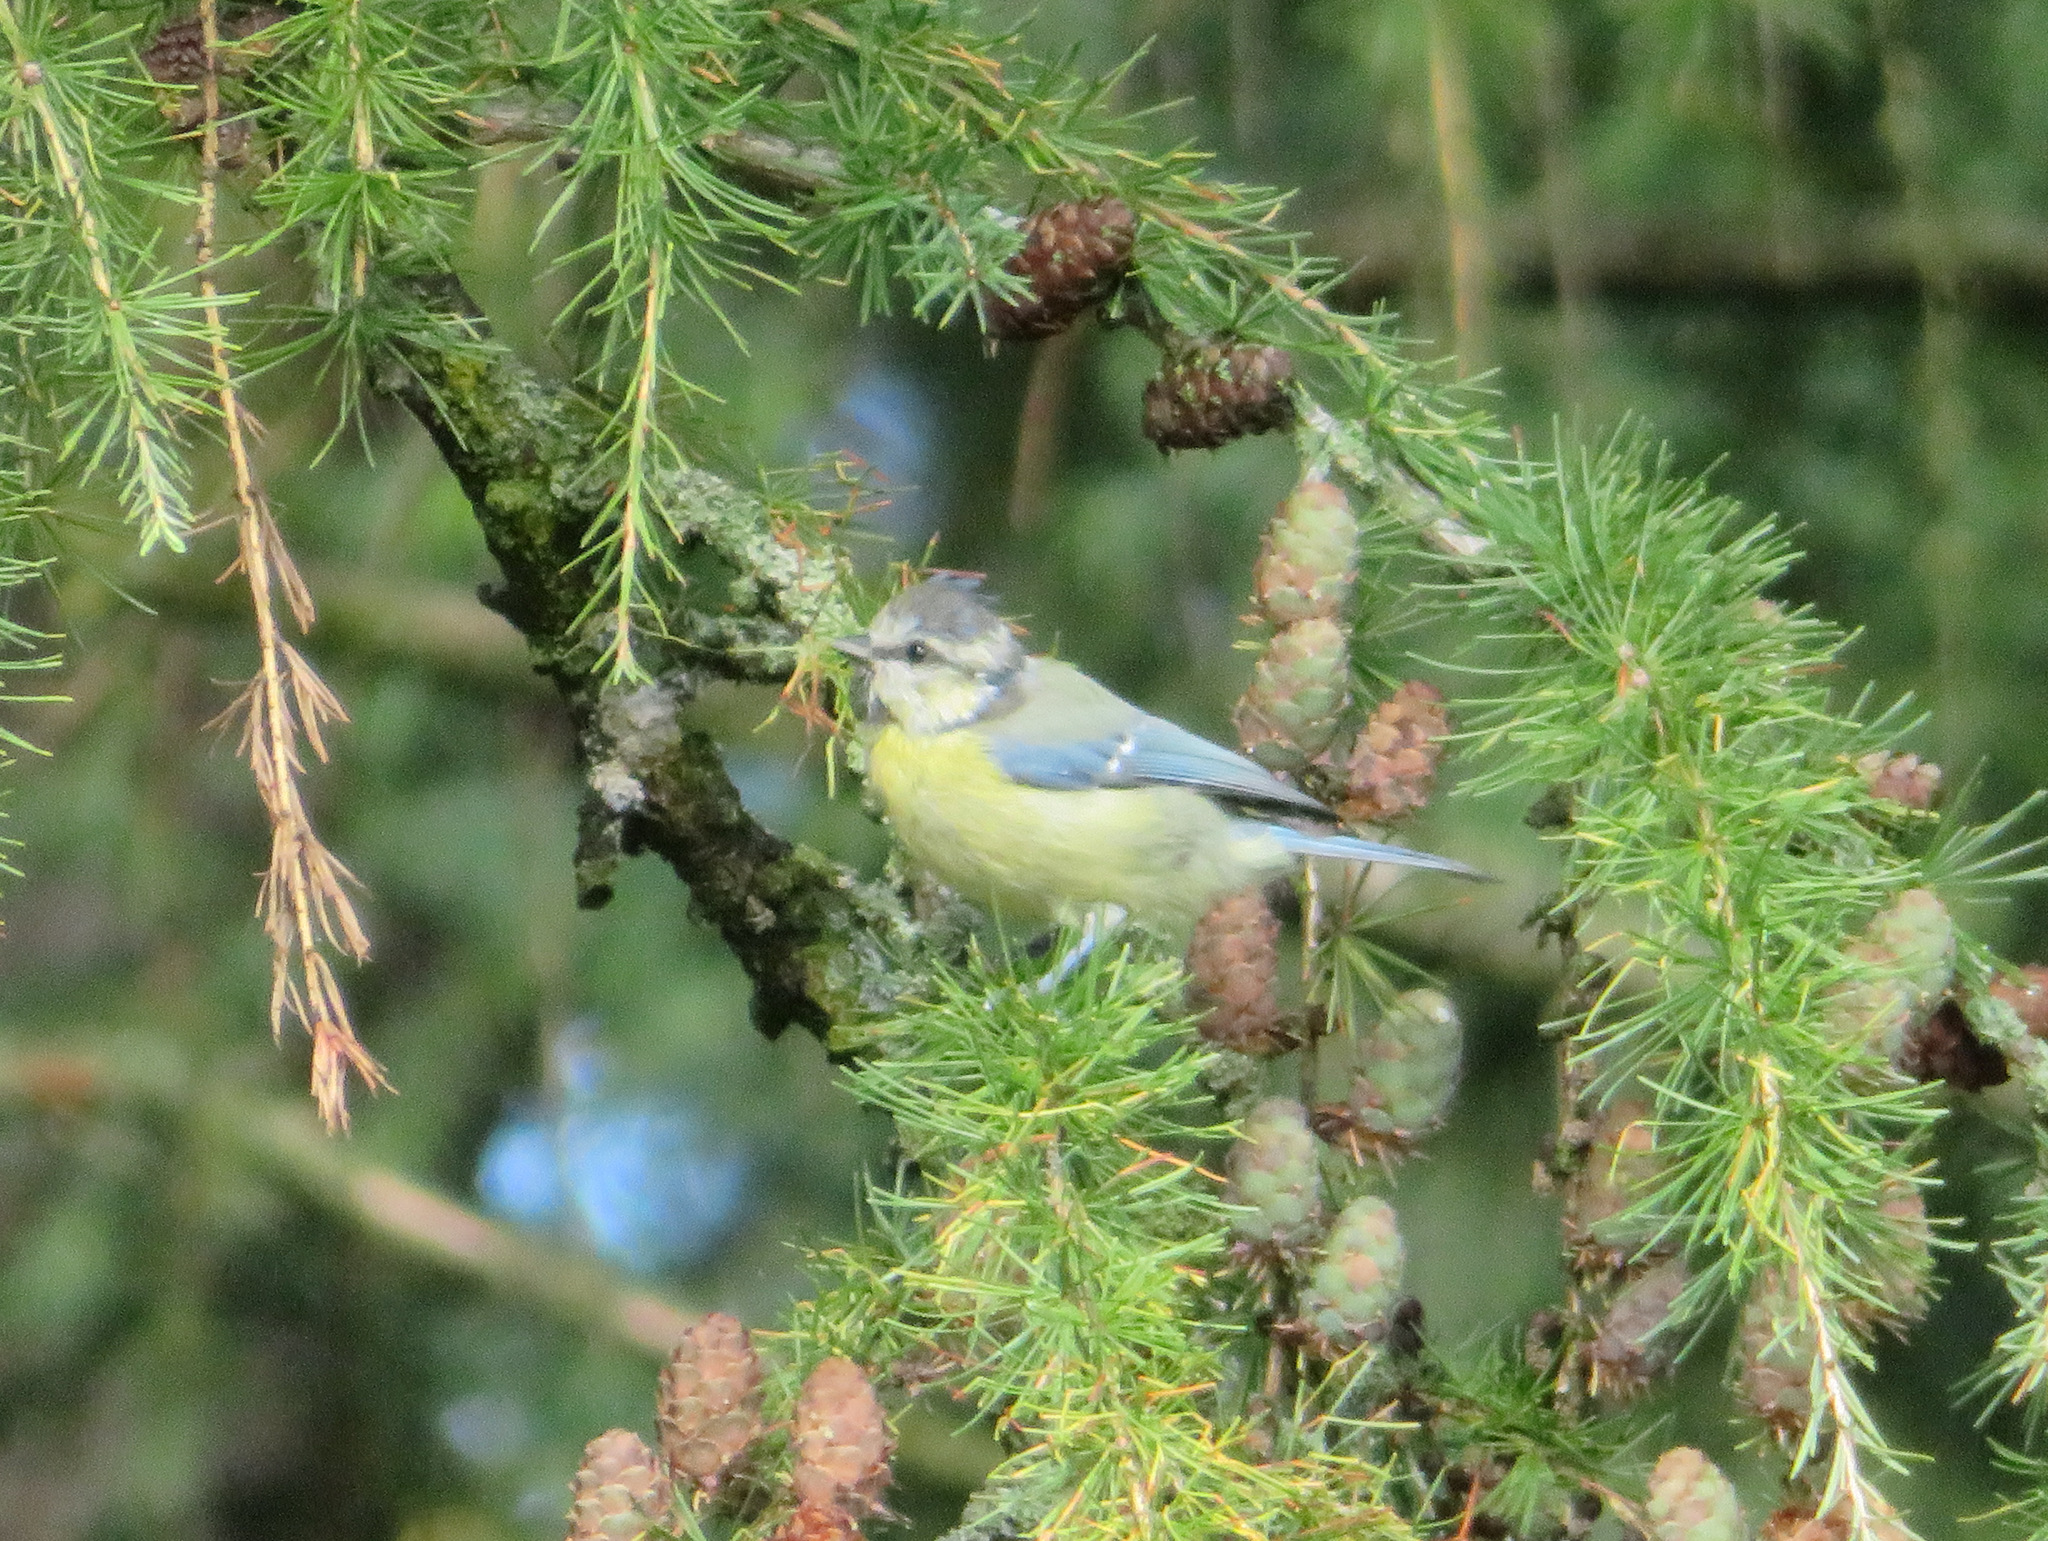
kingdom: Animalia
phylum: Chordata
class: Aves
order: Passeriformes
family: Paridae
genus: Cyanistes
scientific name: Cyanistes caeruleus
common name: Eurasian blue tit
